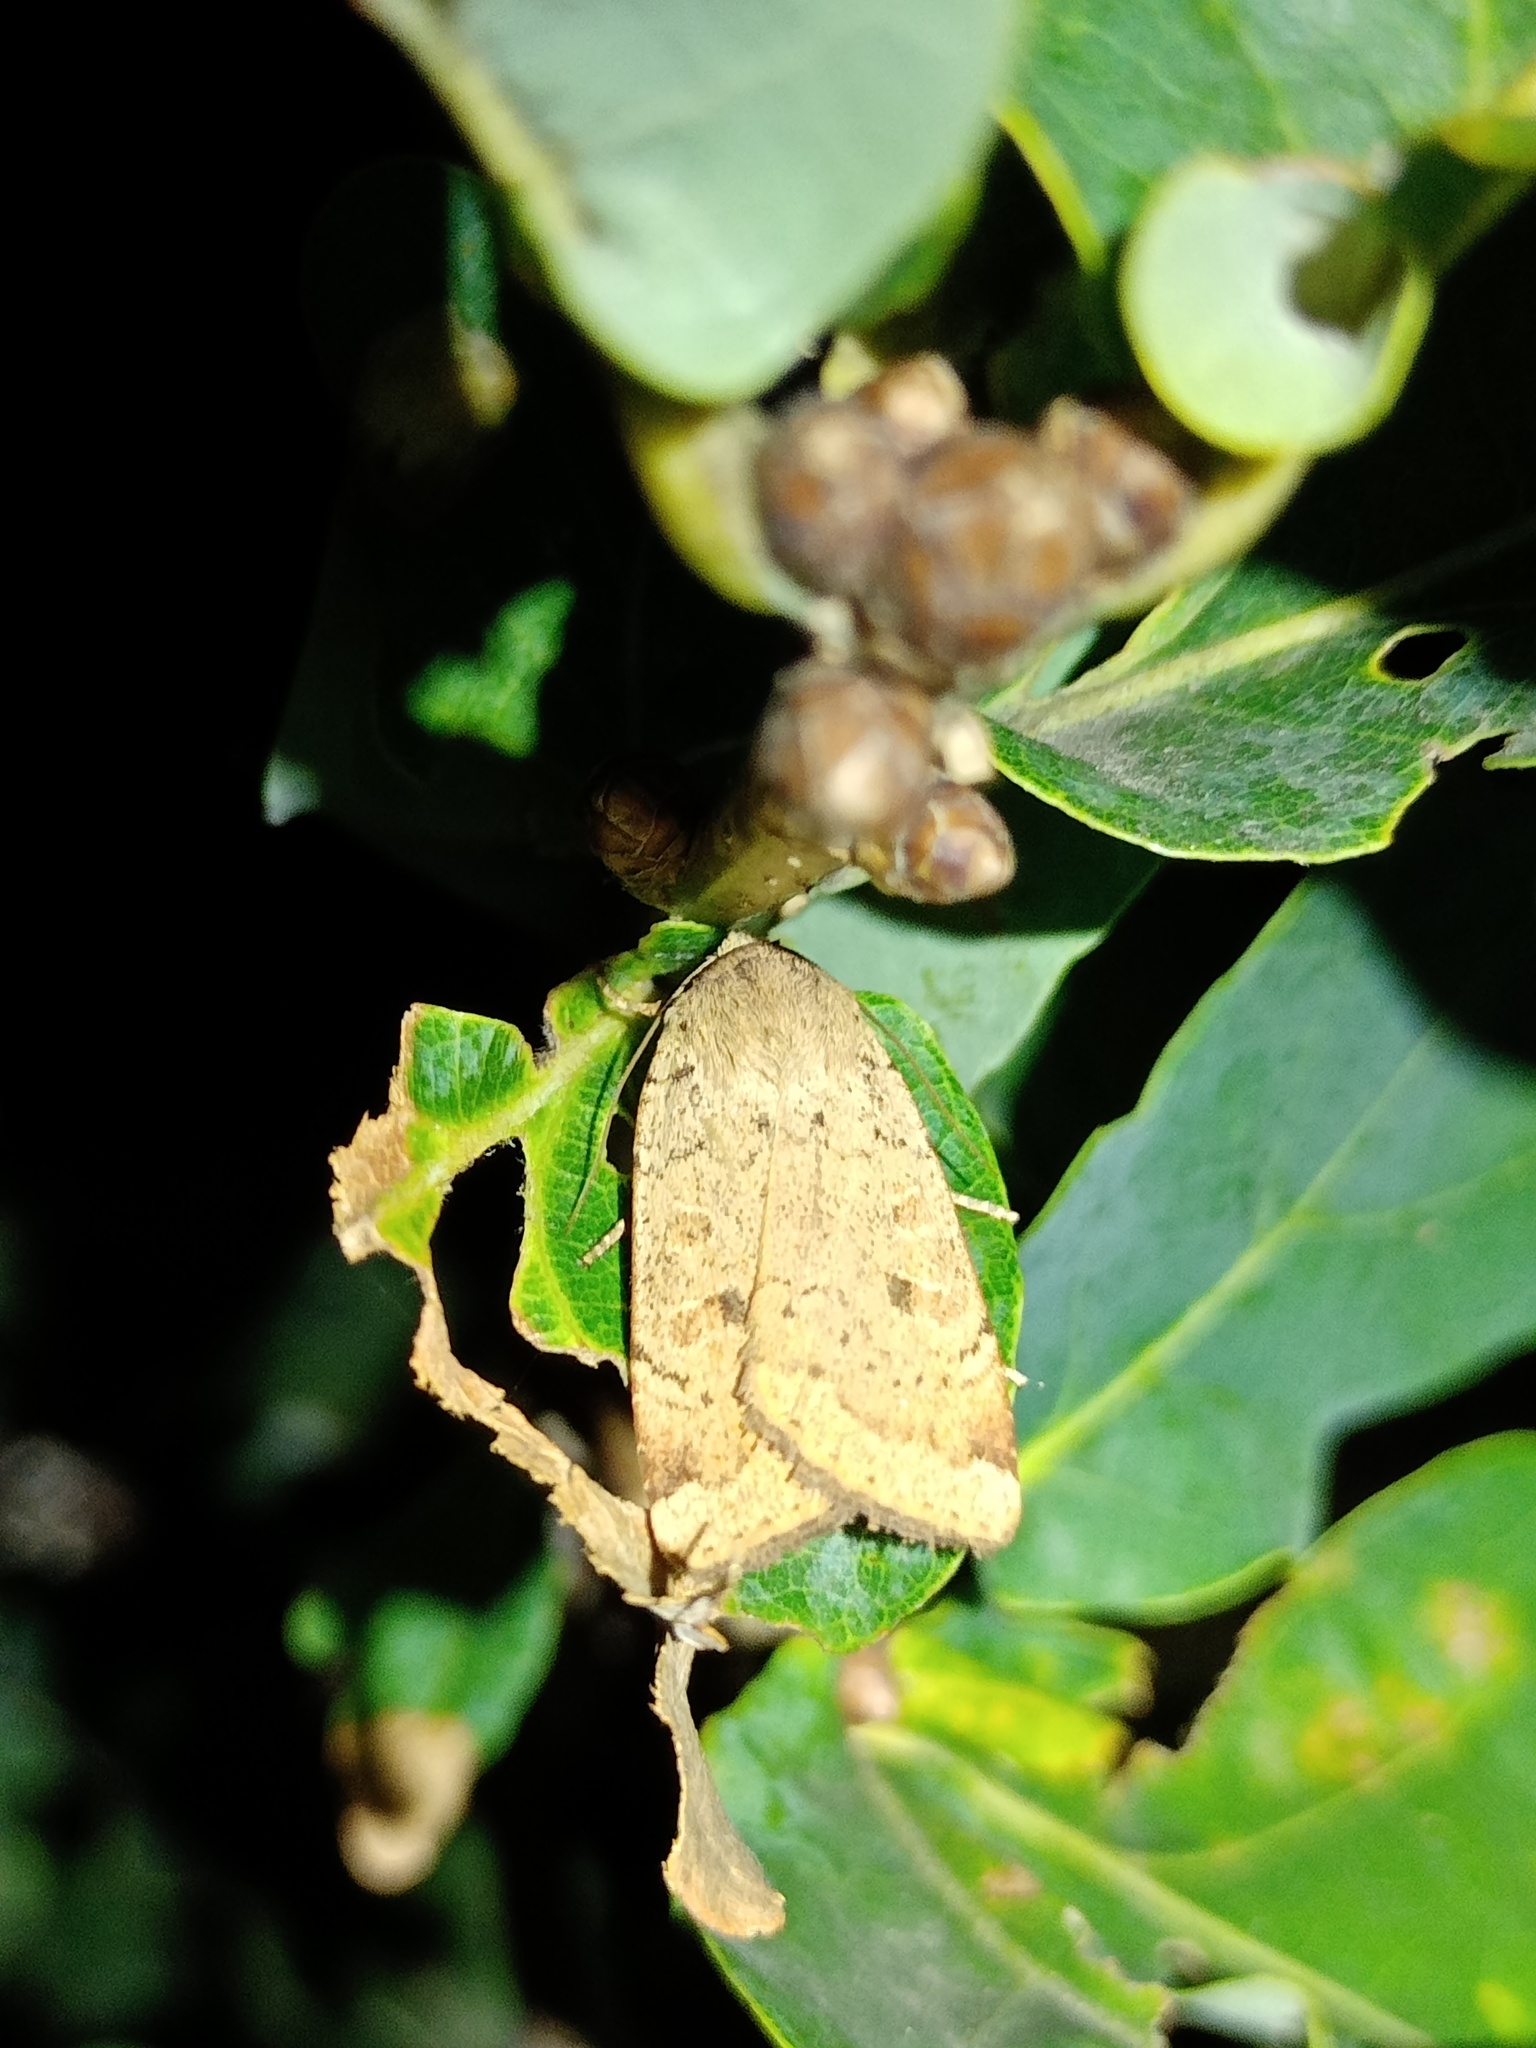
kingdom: Animalia
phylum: Arthropoda
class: Insecta
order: Lepidoptera
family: Noctuidae
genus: Noctua
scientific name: Noctua comes
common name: Lesser yellow underwing
